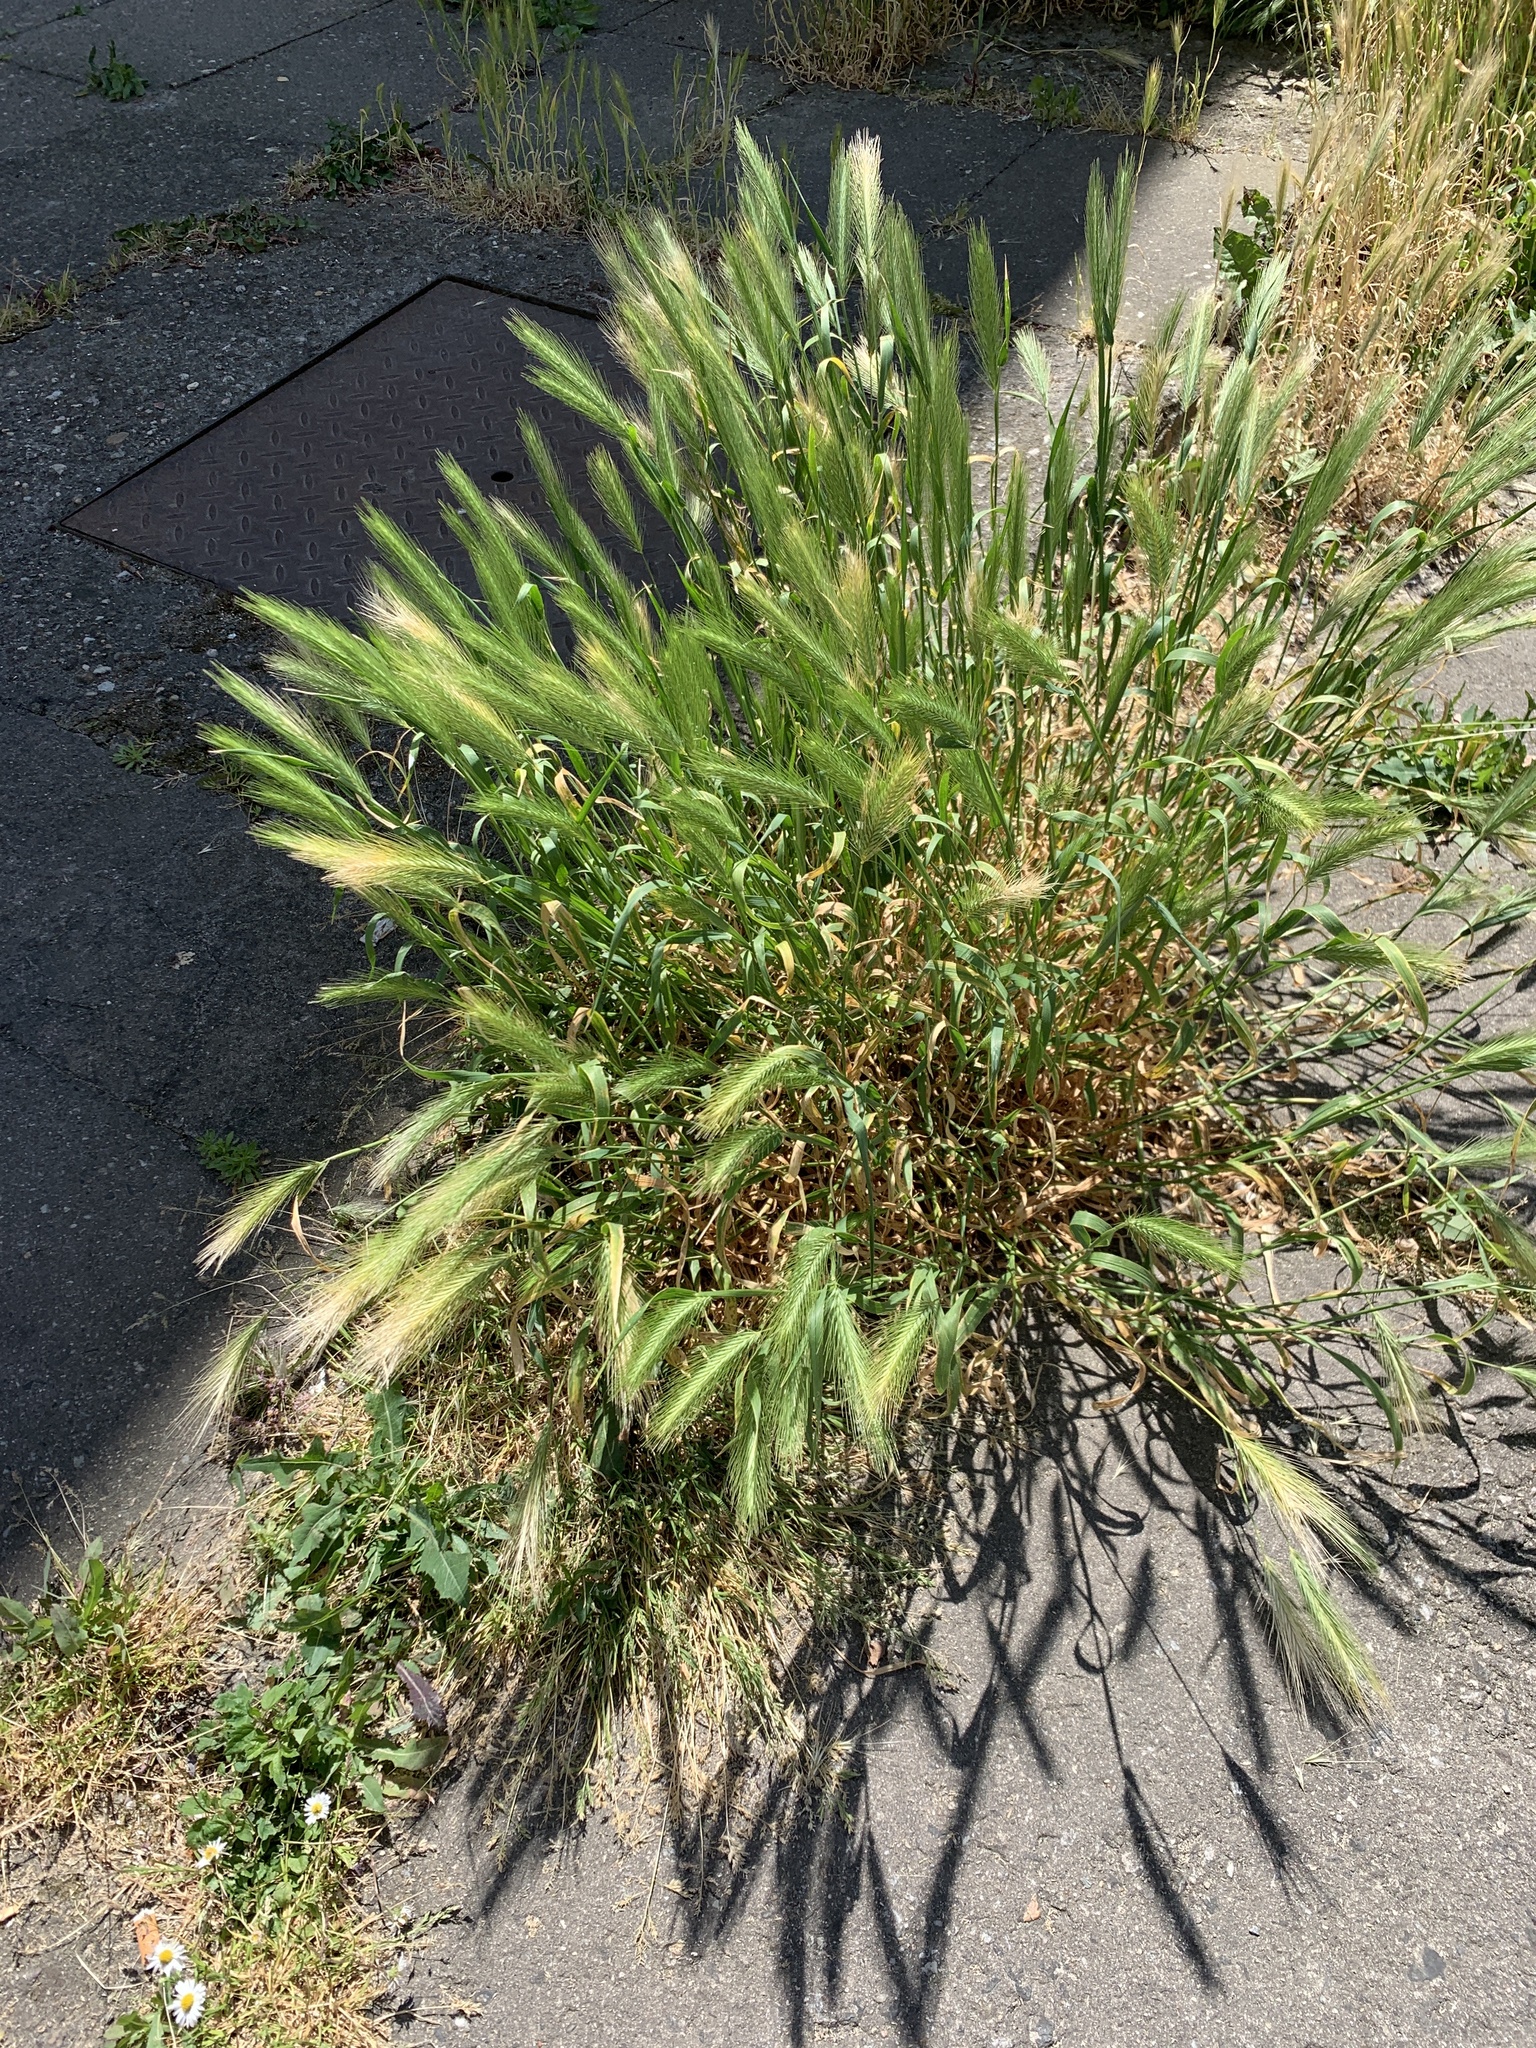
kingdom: Plantae
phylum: Tracheophyta
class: Liliopsida
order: Poales
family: Poaceae
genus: Hordeum
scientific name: Hordeum murinum
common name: Wall barley
